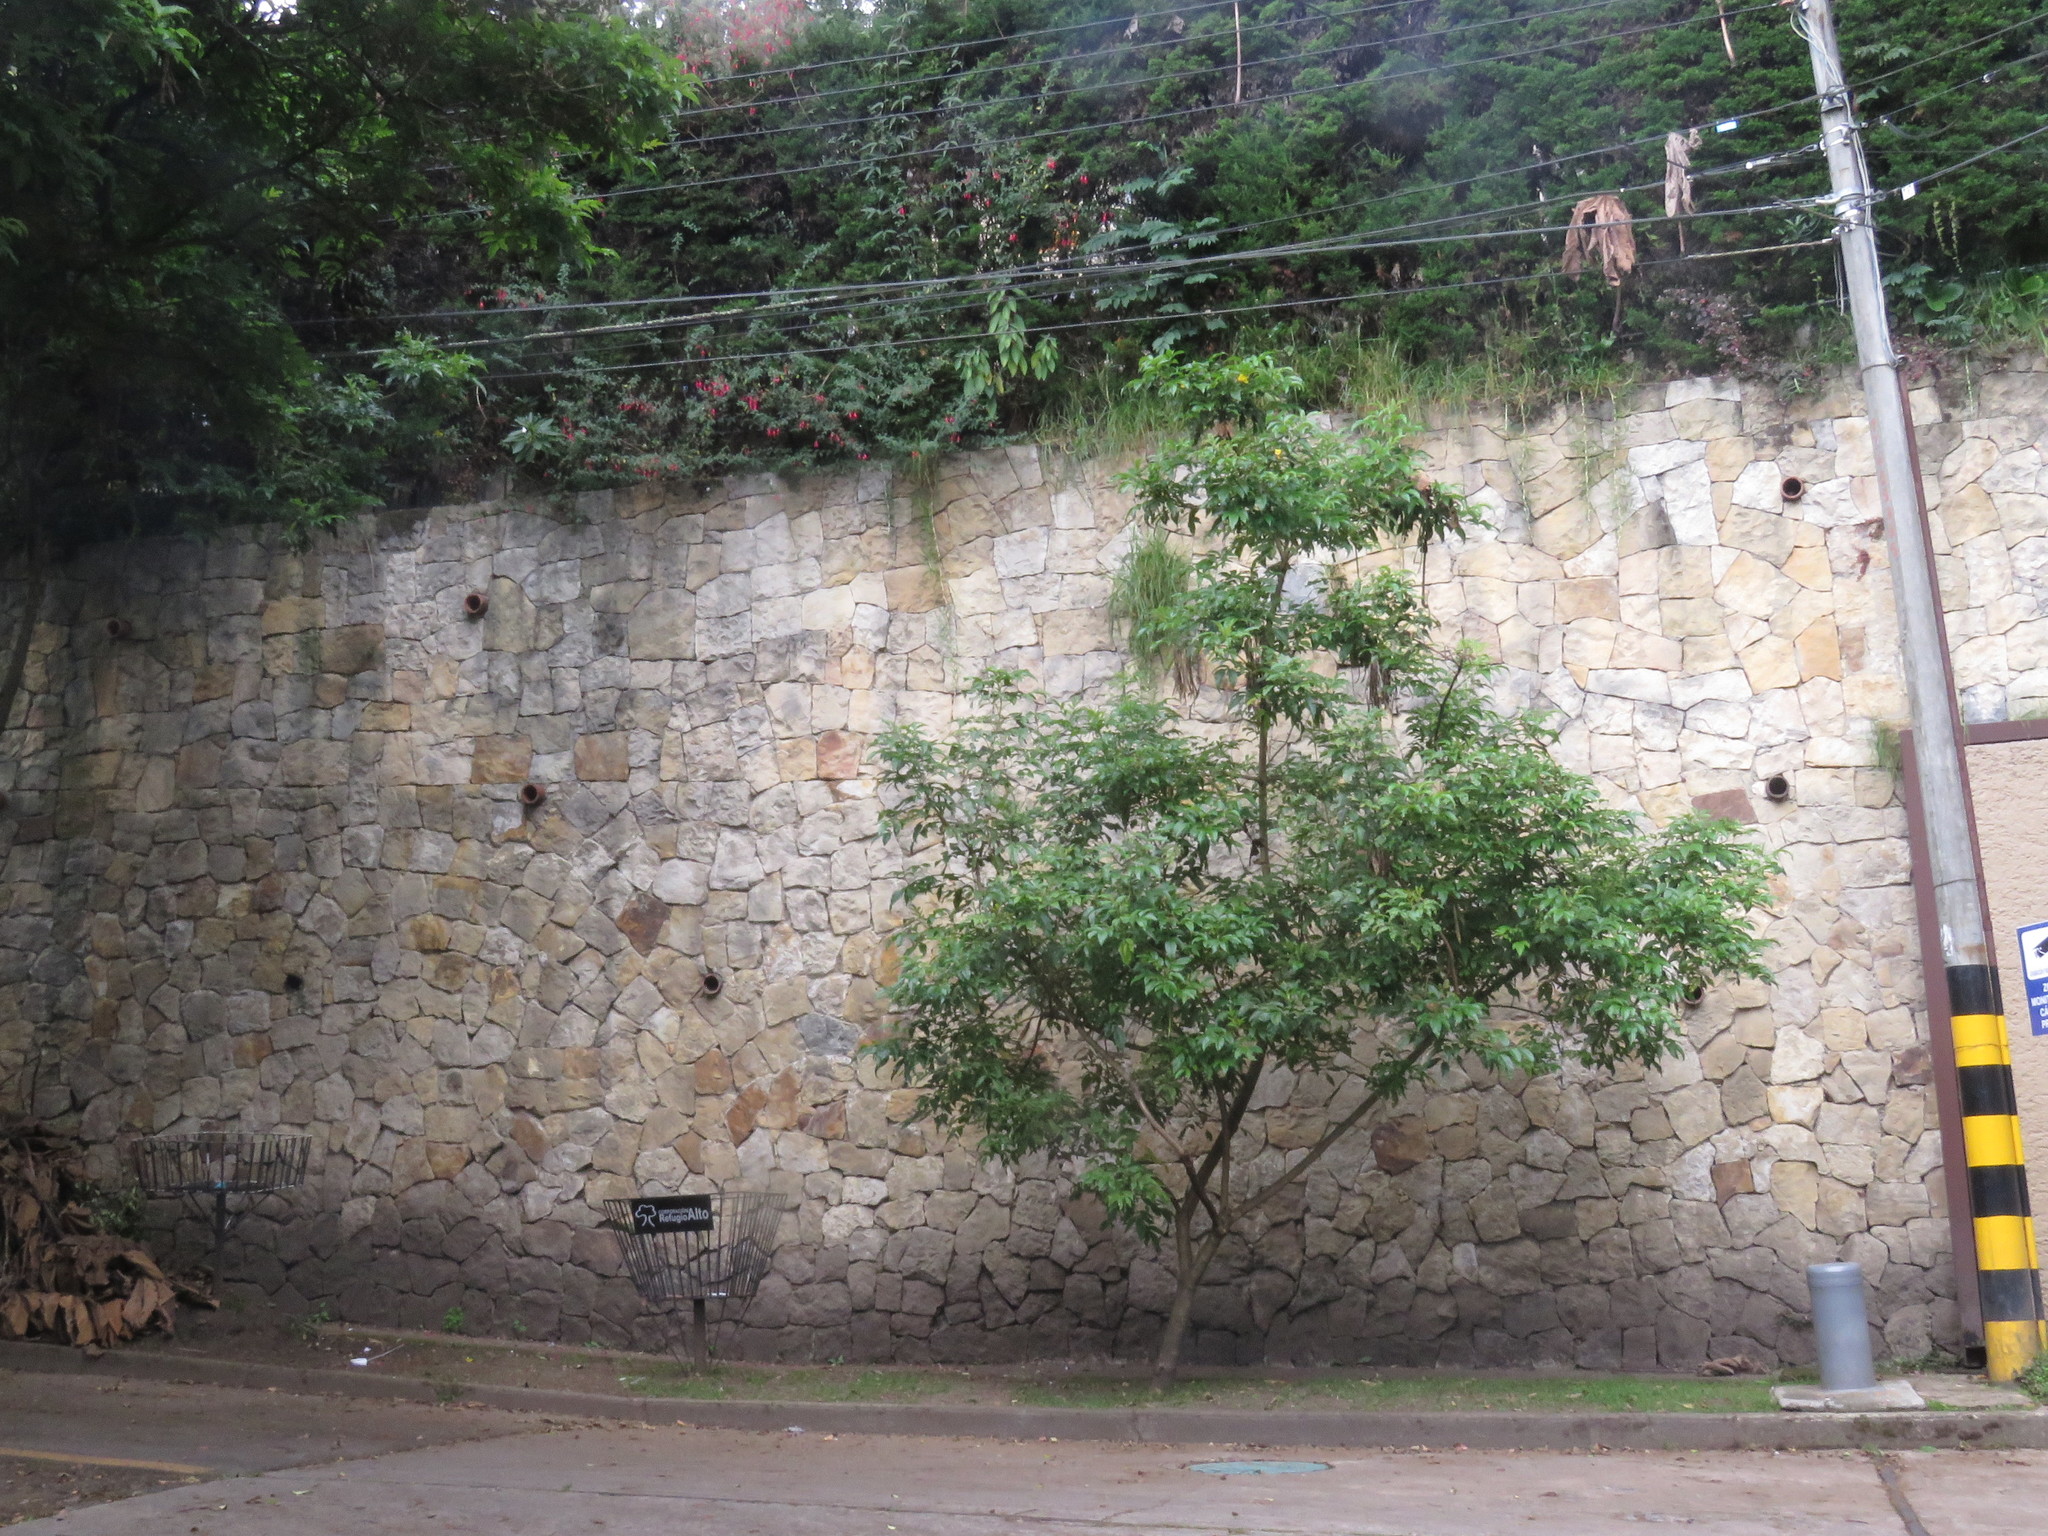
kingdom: Animalia
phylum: Chordata
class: Aves
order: Passeriformes
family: Hirundinidae
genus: Notiochelidon
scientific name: Notiochelidon murina
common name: Brown-bellied swallow
